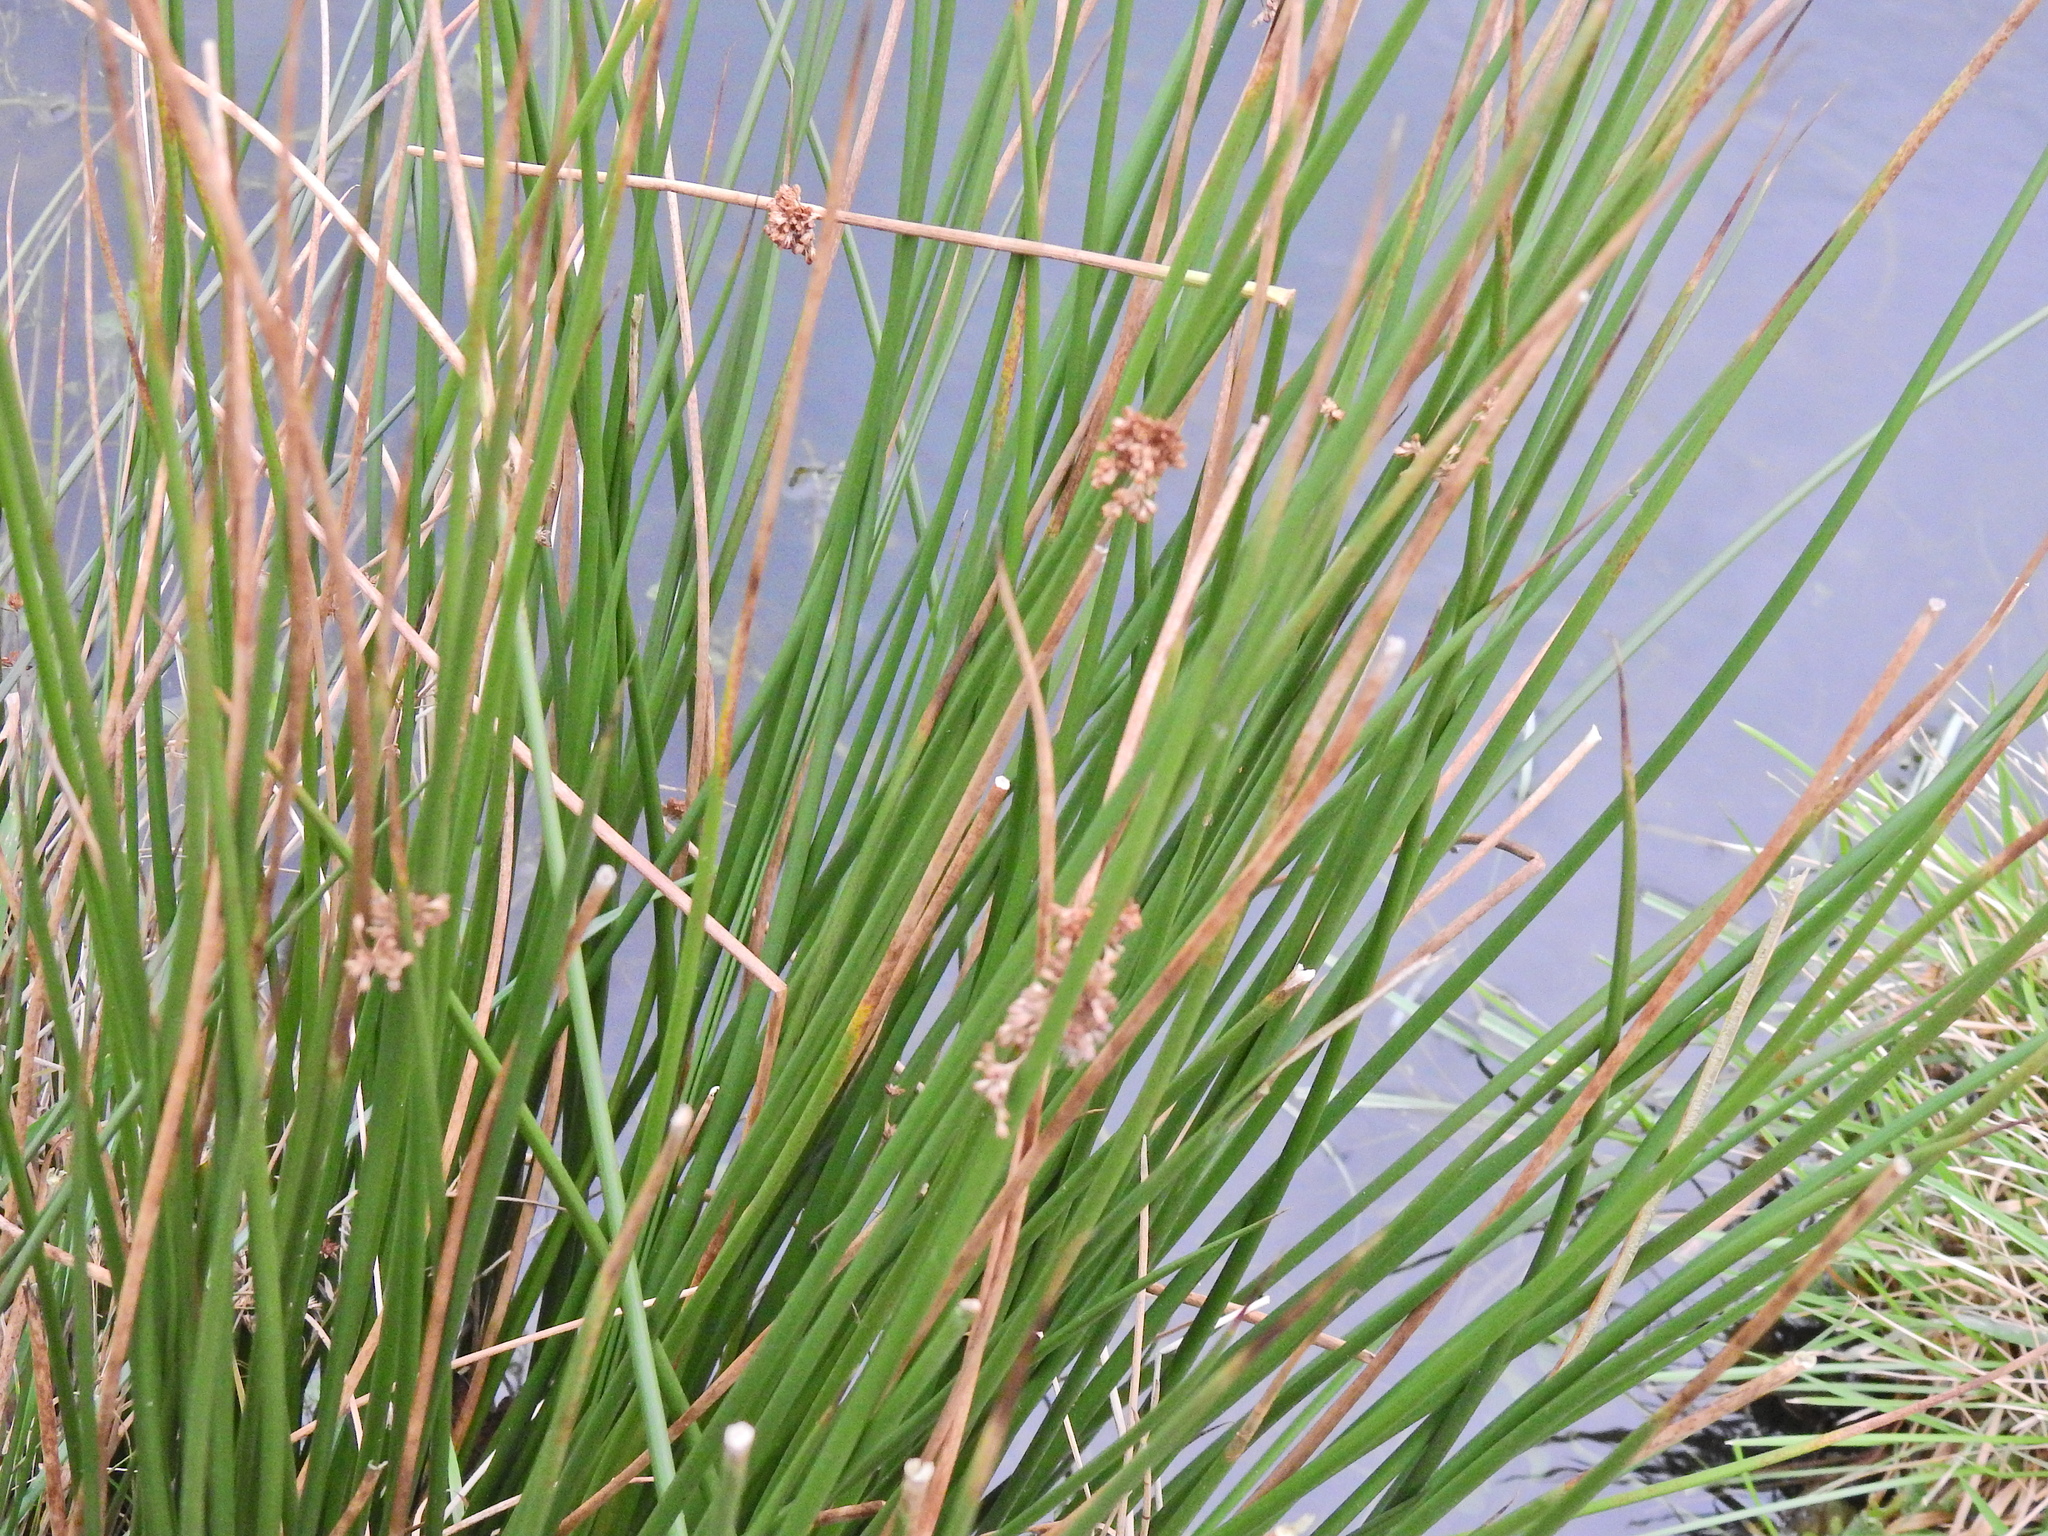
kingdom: Plantae
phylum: Tracheophyta
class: Liliopsida
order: Poales
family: Juncaceae
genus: Juncus
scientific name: Juncus effusus
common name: Soft rush
